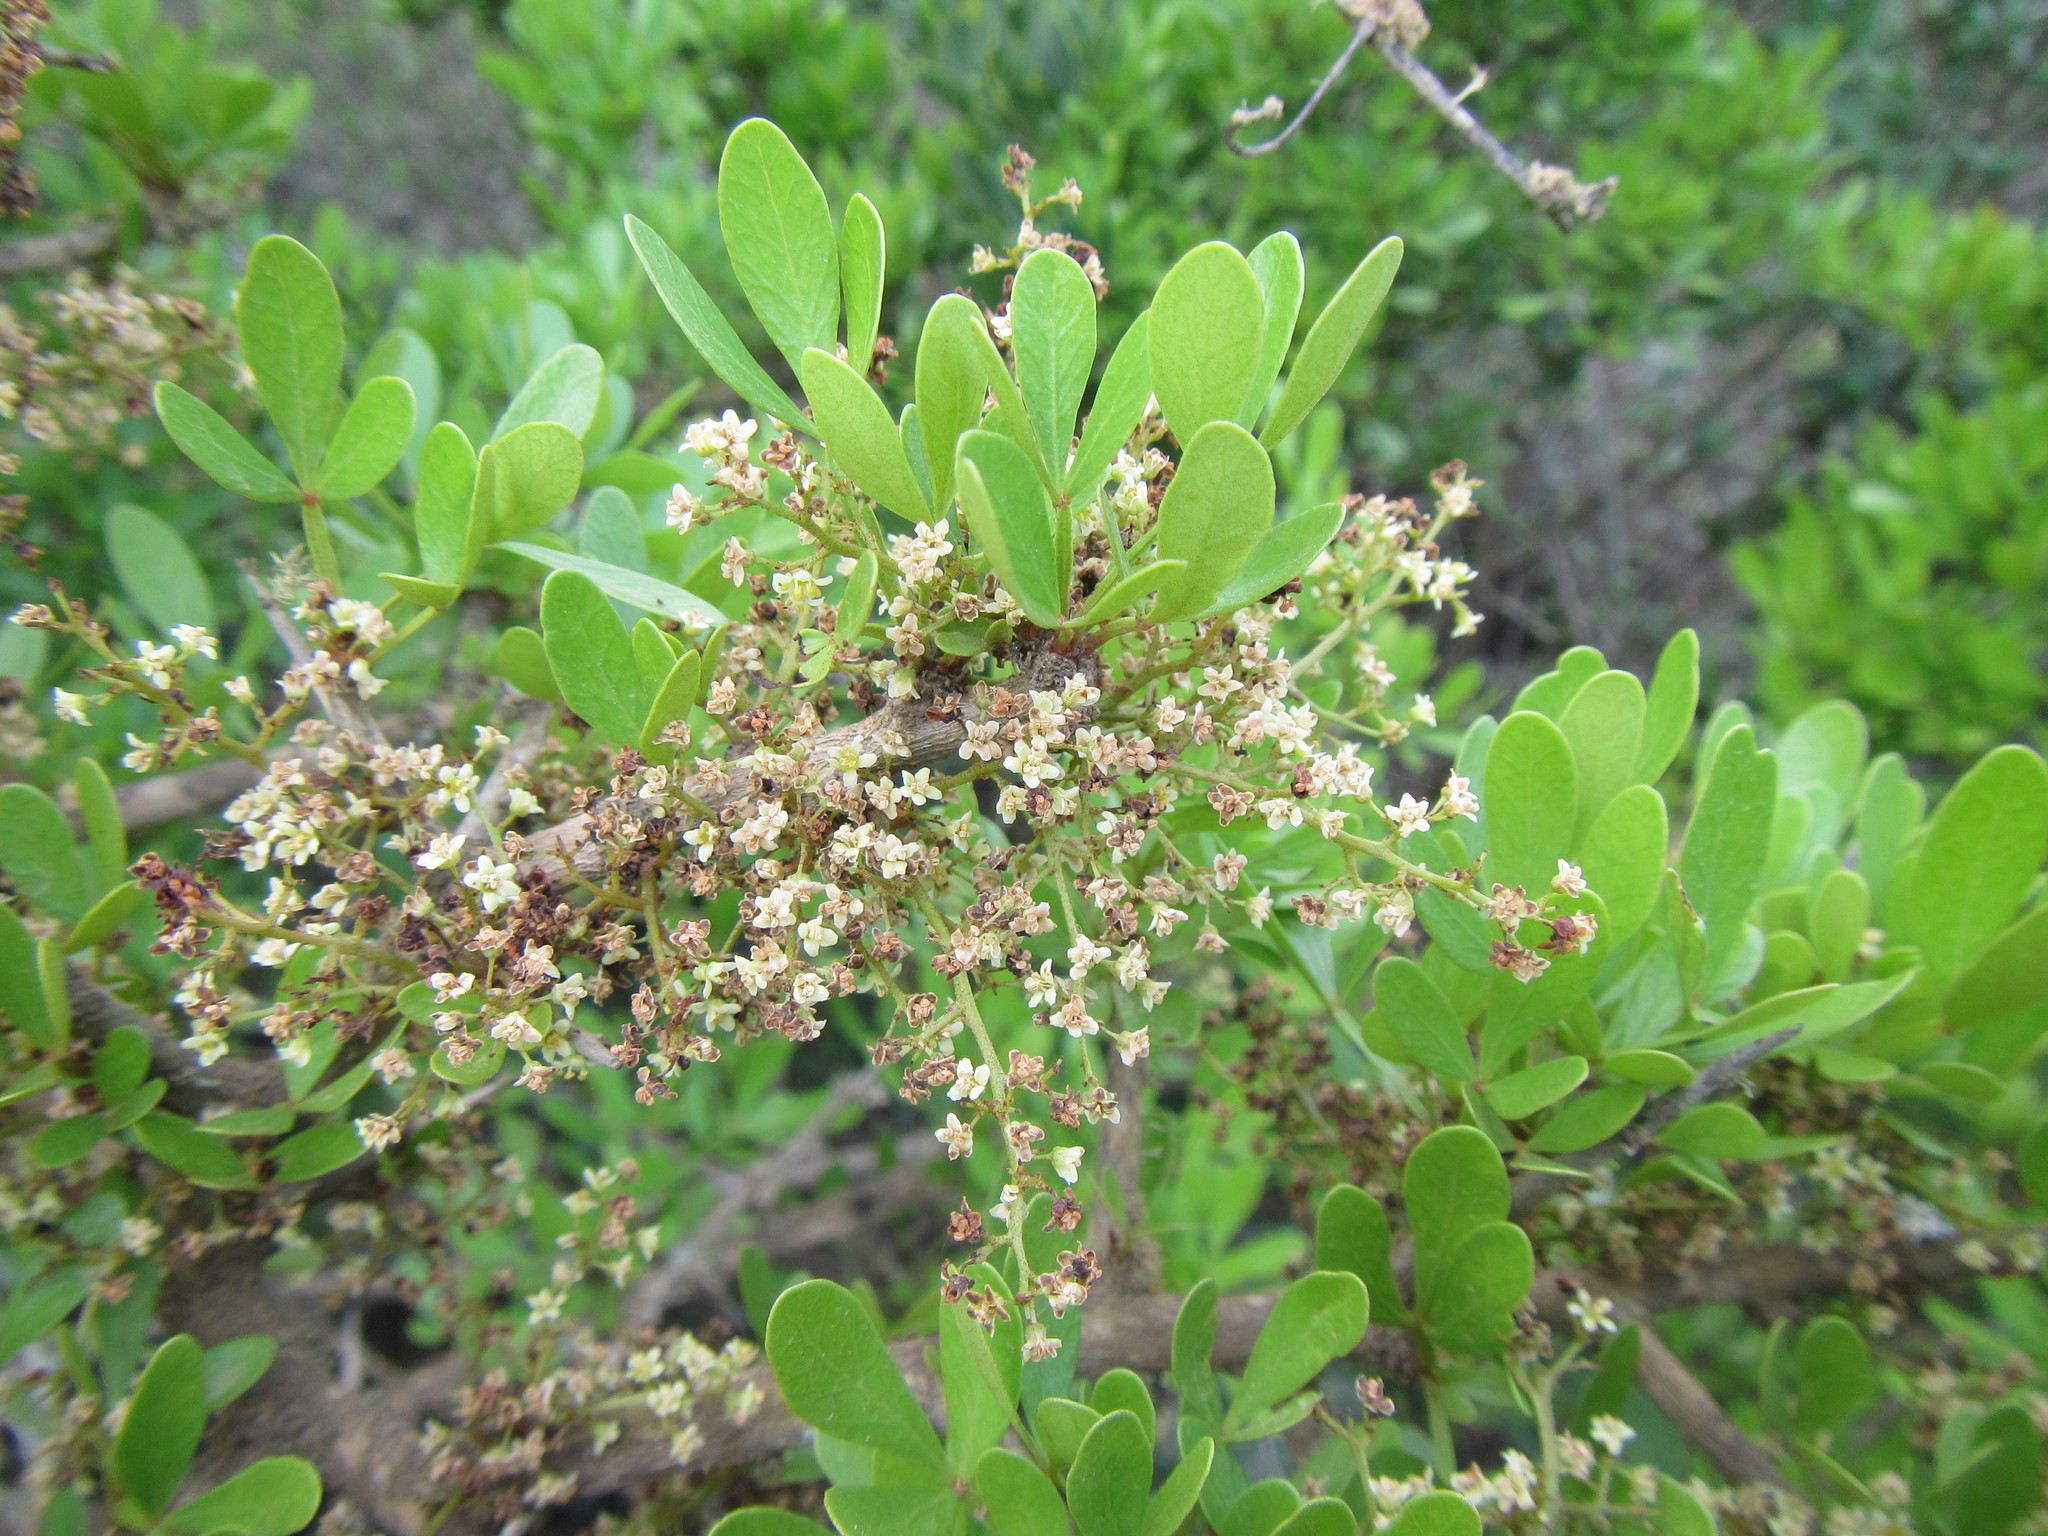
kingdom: Plantae
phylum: Tracheophyta
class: Magnoliopsida
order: Sapindales
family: Anacardiaceae
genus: Searsia
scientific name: Searsia pterota
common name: Winged currant
